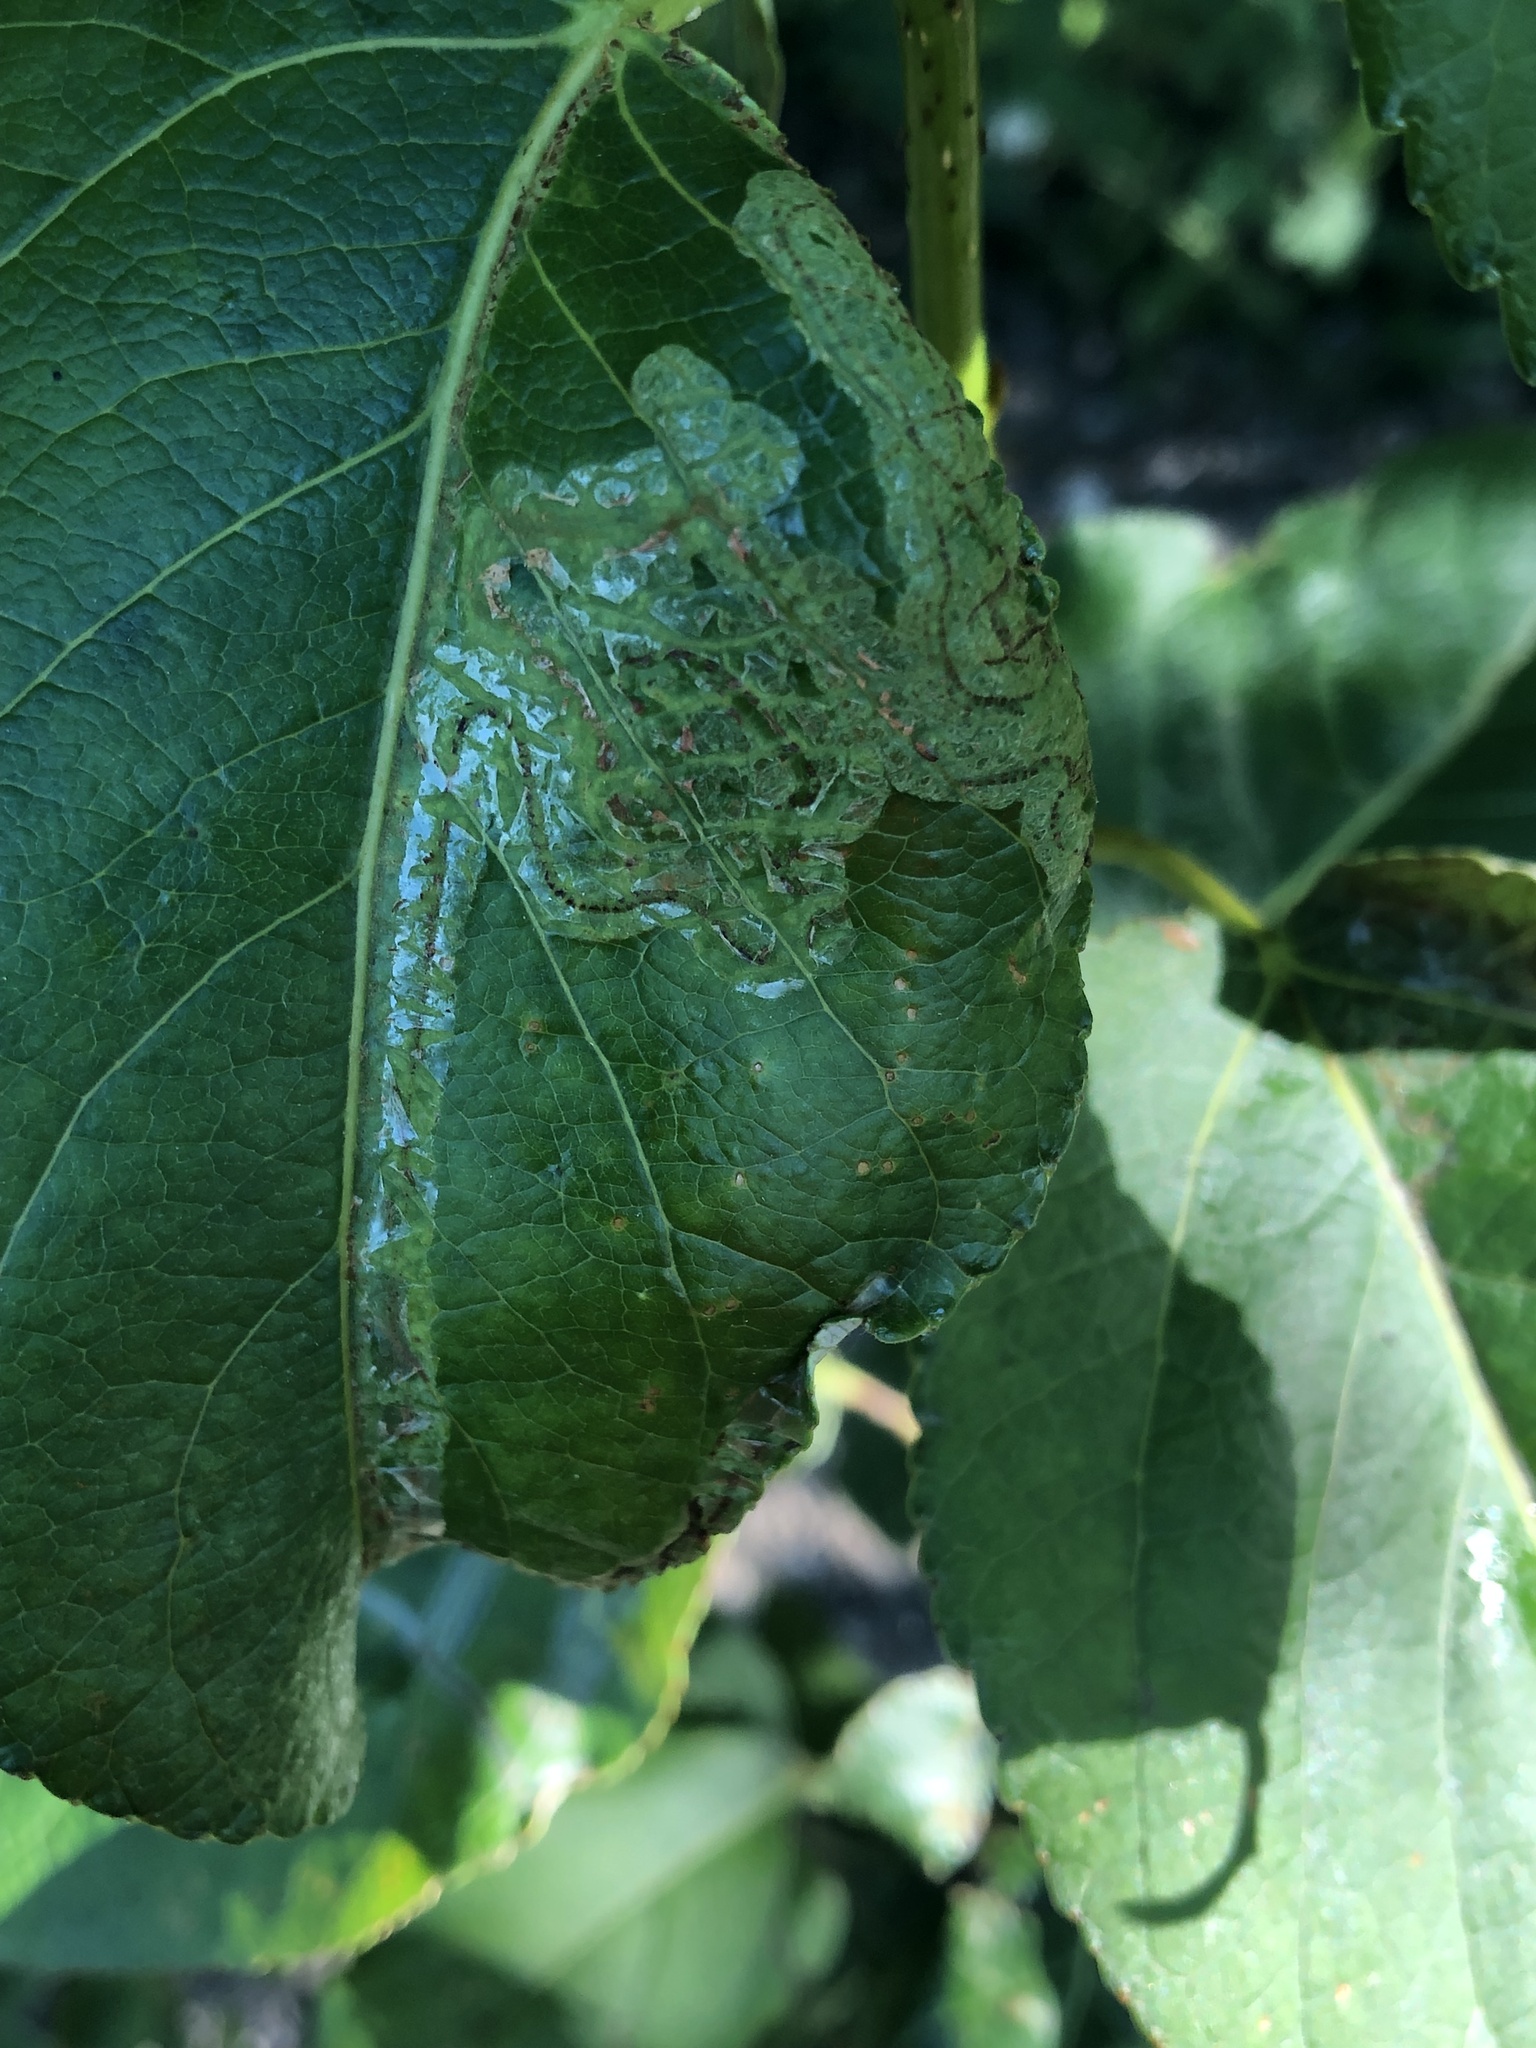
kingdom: Animalia
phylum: Arthropoda
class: Insecta
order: Lepidoptera
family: Gracillariidae
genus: Phyllocnistis
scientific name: Phyllocnistis populiella
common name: Aspen serpentine leafminer moth
